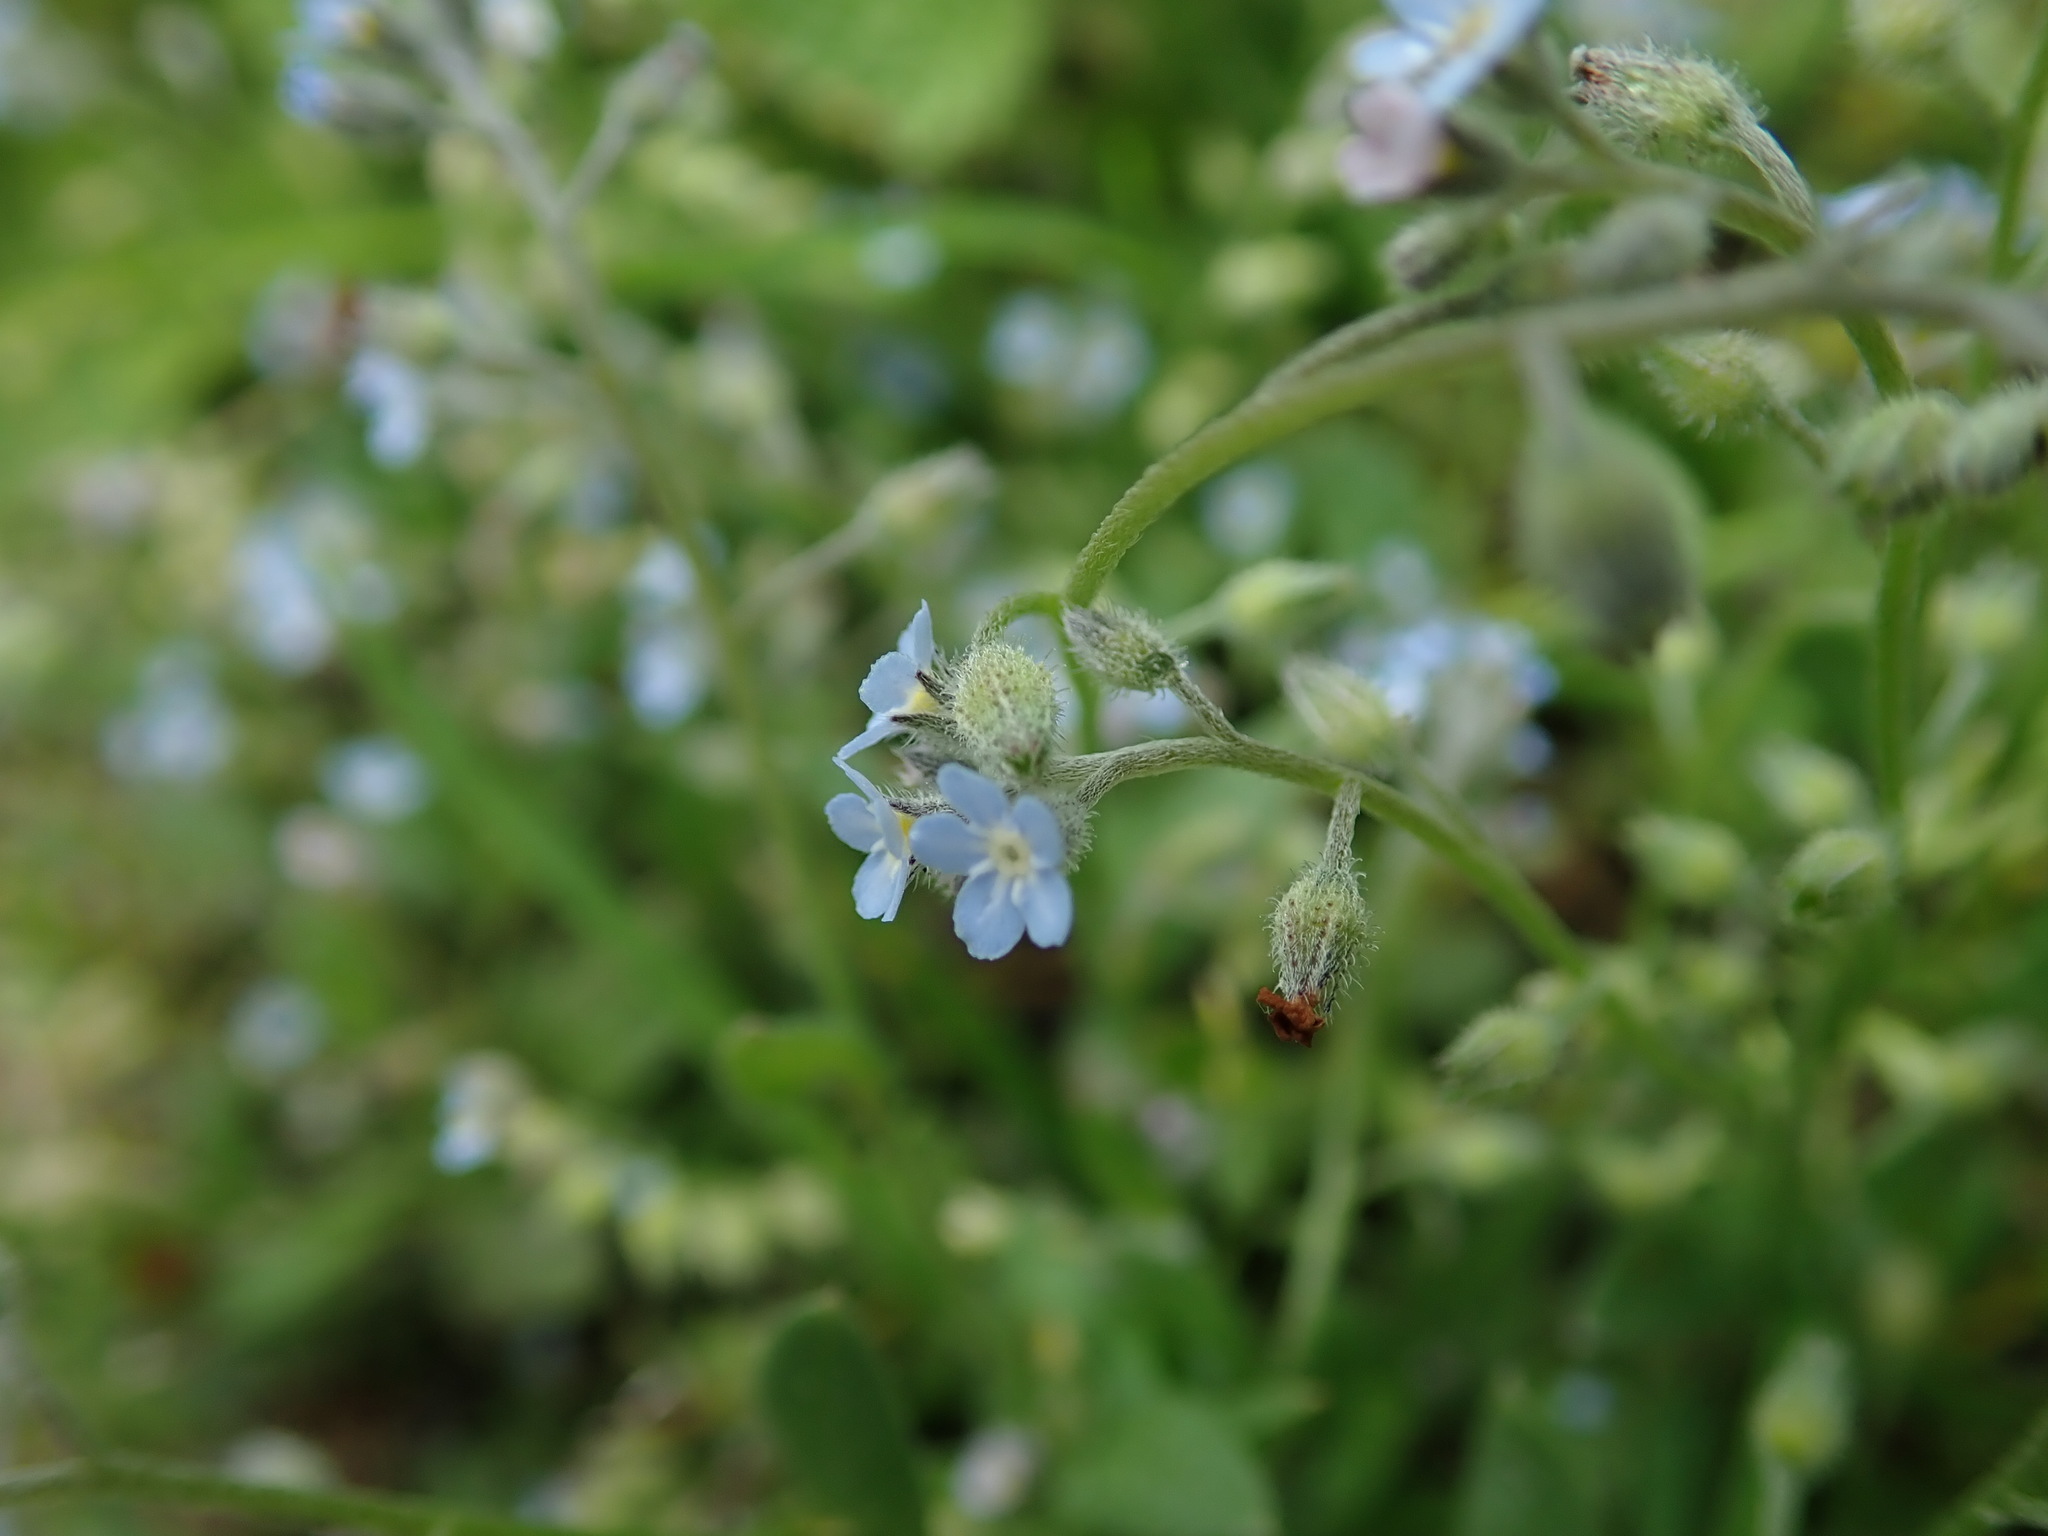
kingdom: Plantae
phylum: Tracheophyta
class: Magnoliopsida
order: Boraginales
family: Boraginaceae
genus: Myosotis
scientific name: Myosotis arvensis
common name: Field forget-me-not
